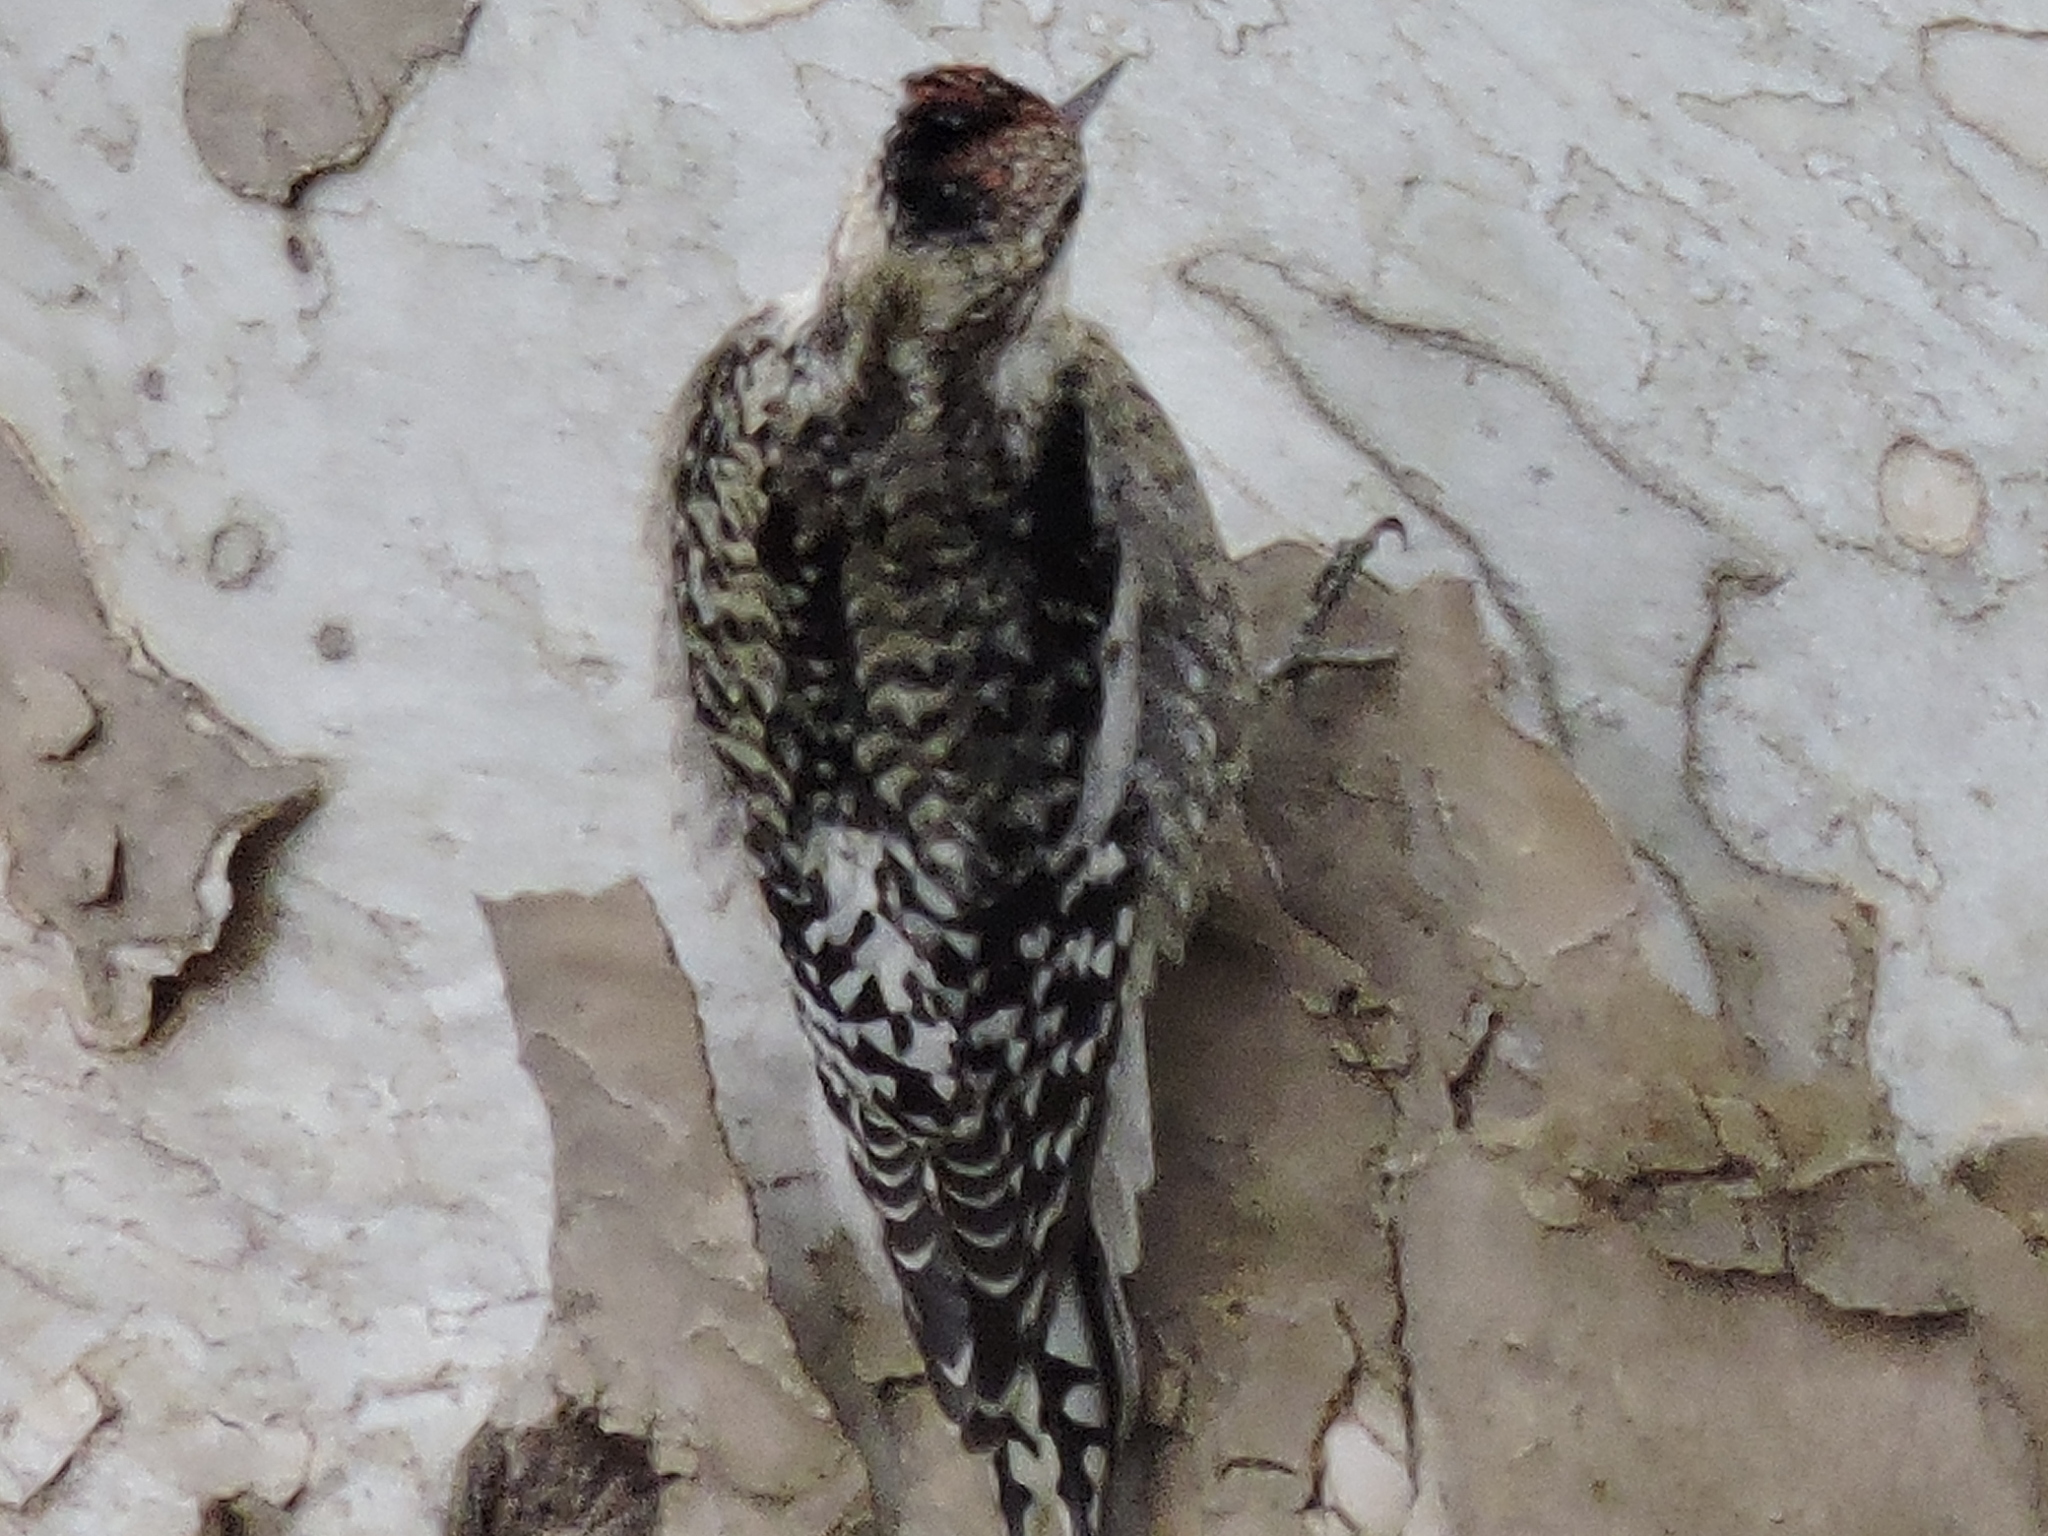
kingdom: Animalia
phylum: Chordata
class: Aves
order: Piciformes
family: Picidae
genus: Sphyrapicus
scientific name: Sphyrapicus varius
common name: Yellow-bellied sapsucker
